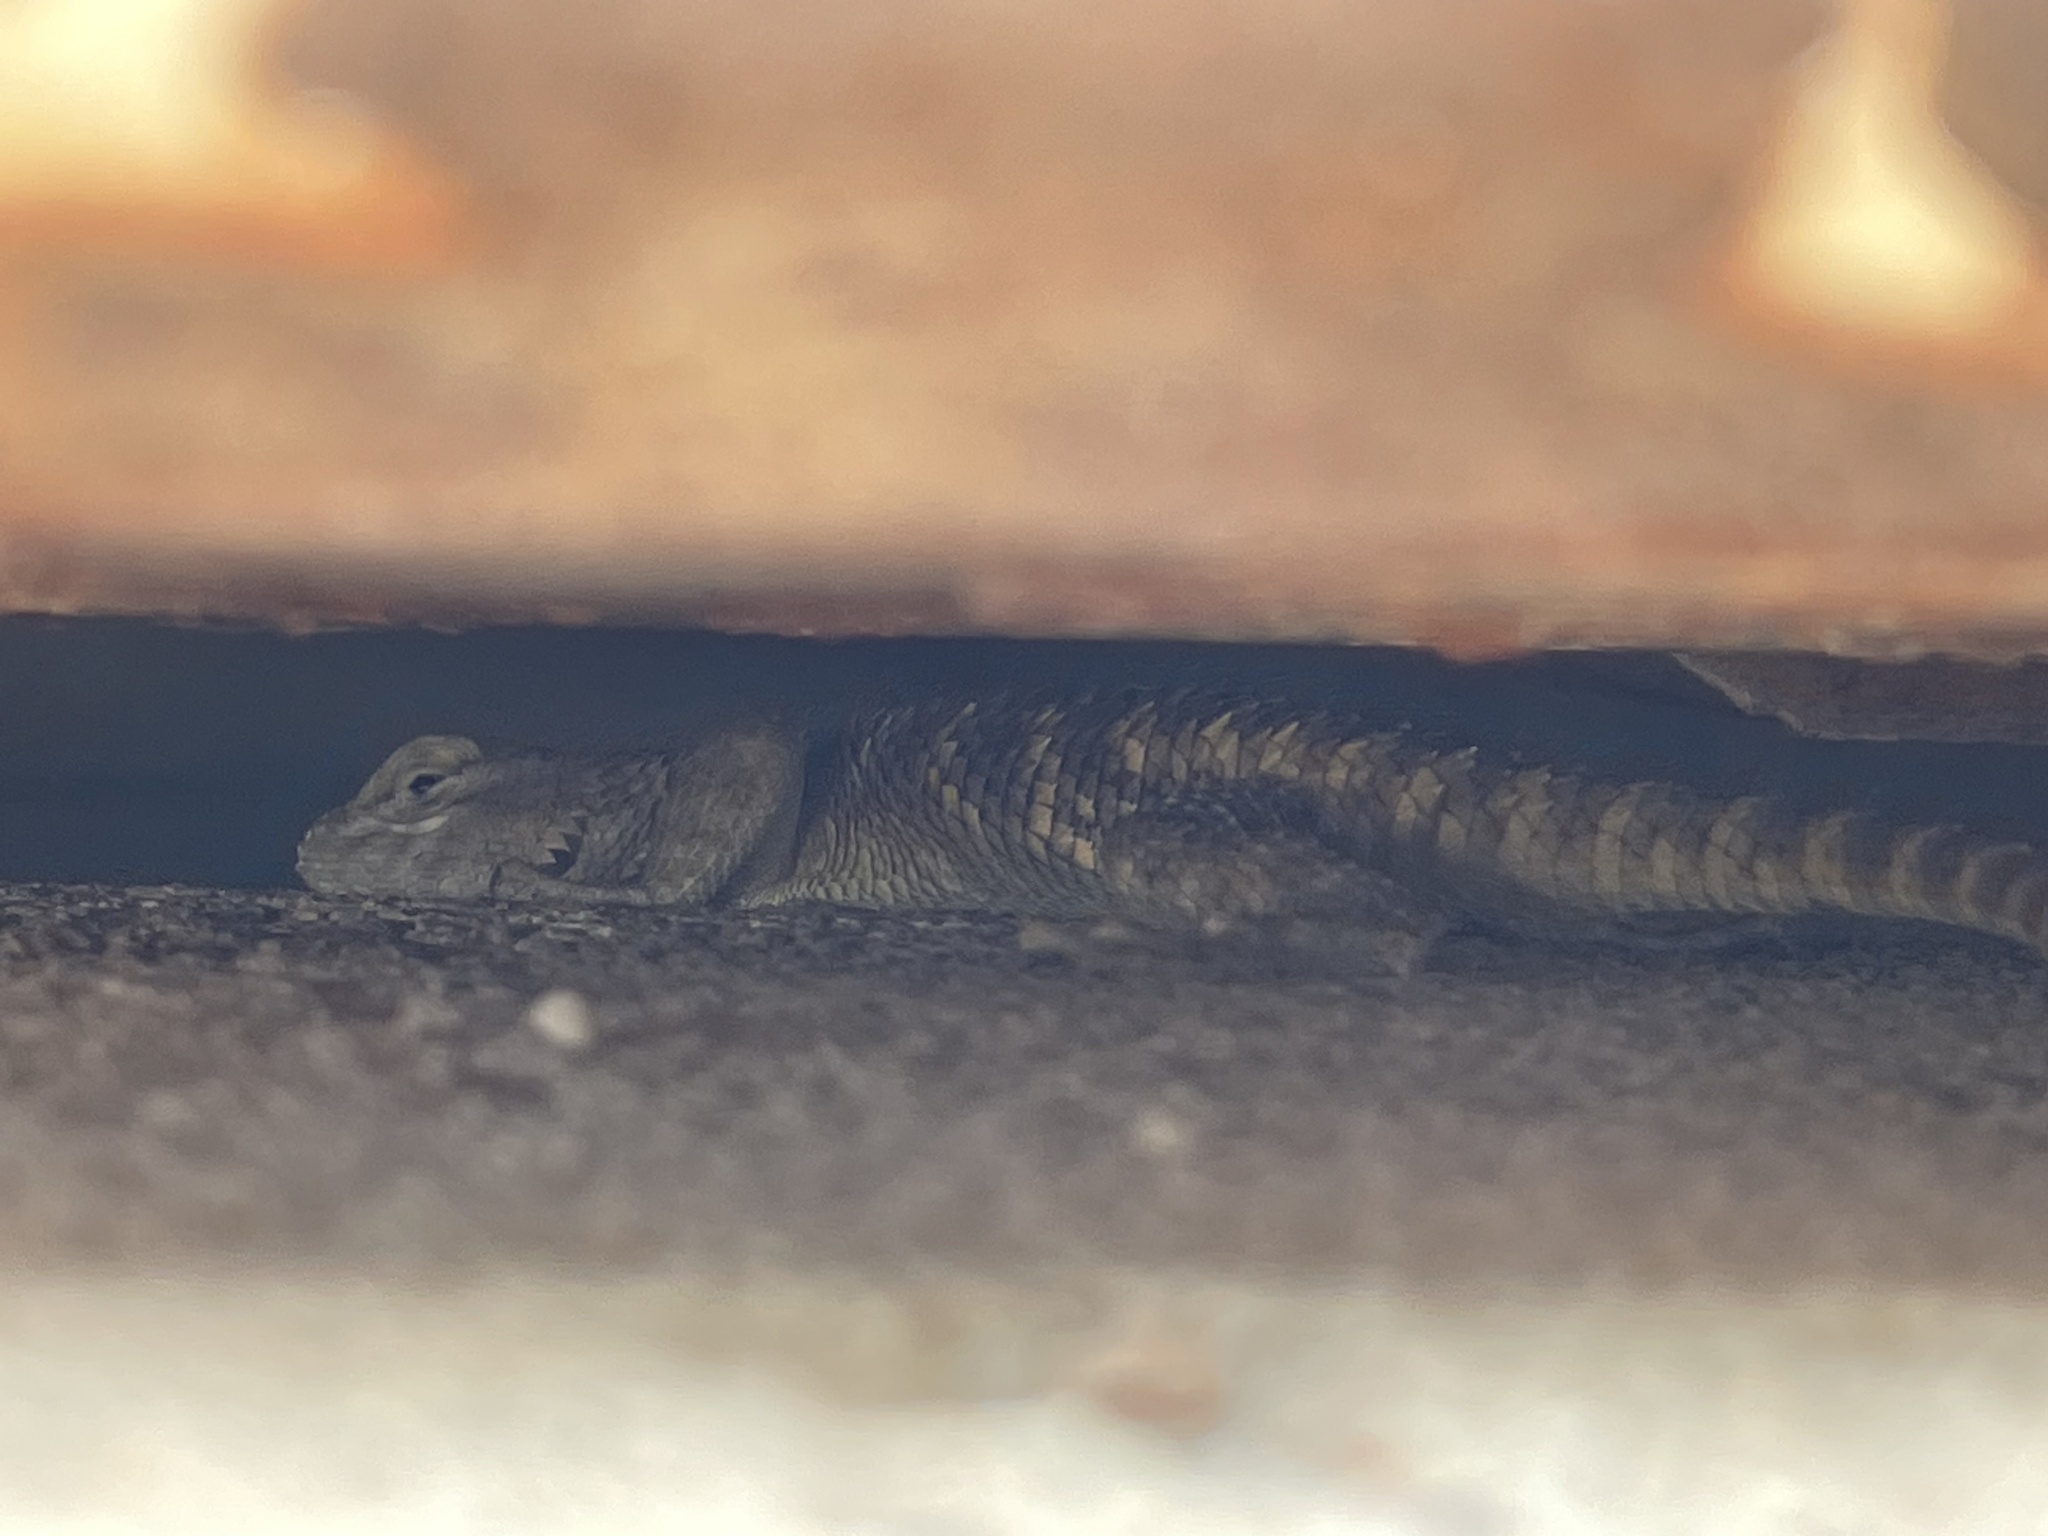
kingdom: Animalia
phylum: Chordata
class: Squamata
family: Phrynosomatidae
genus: Sceloporus
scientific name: Sceloporus uniformis
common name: Yellow-backed spiny lizard
